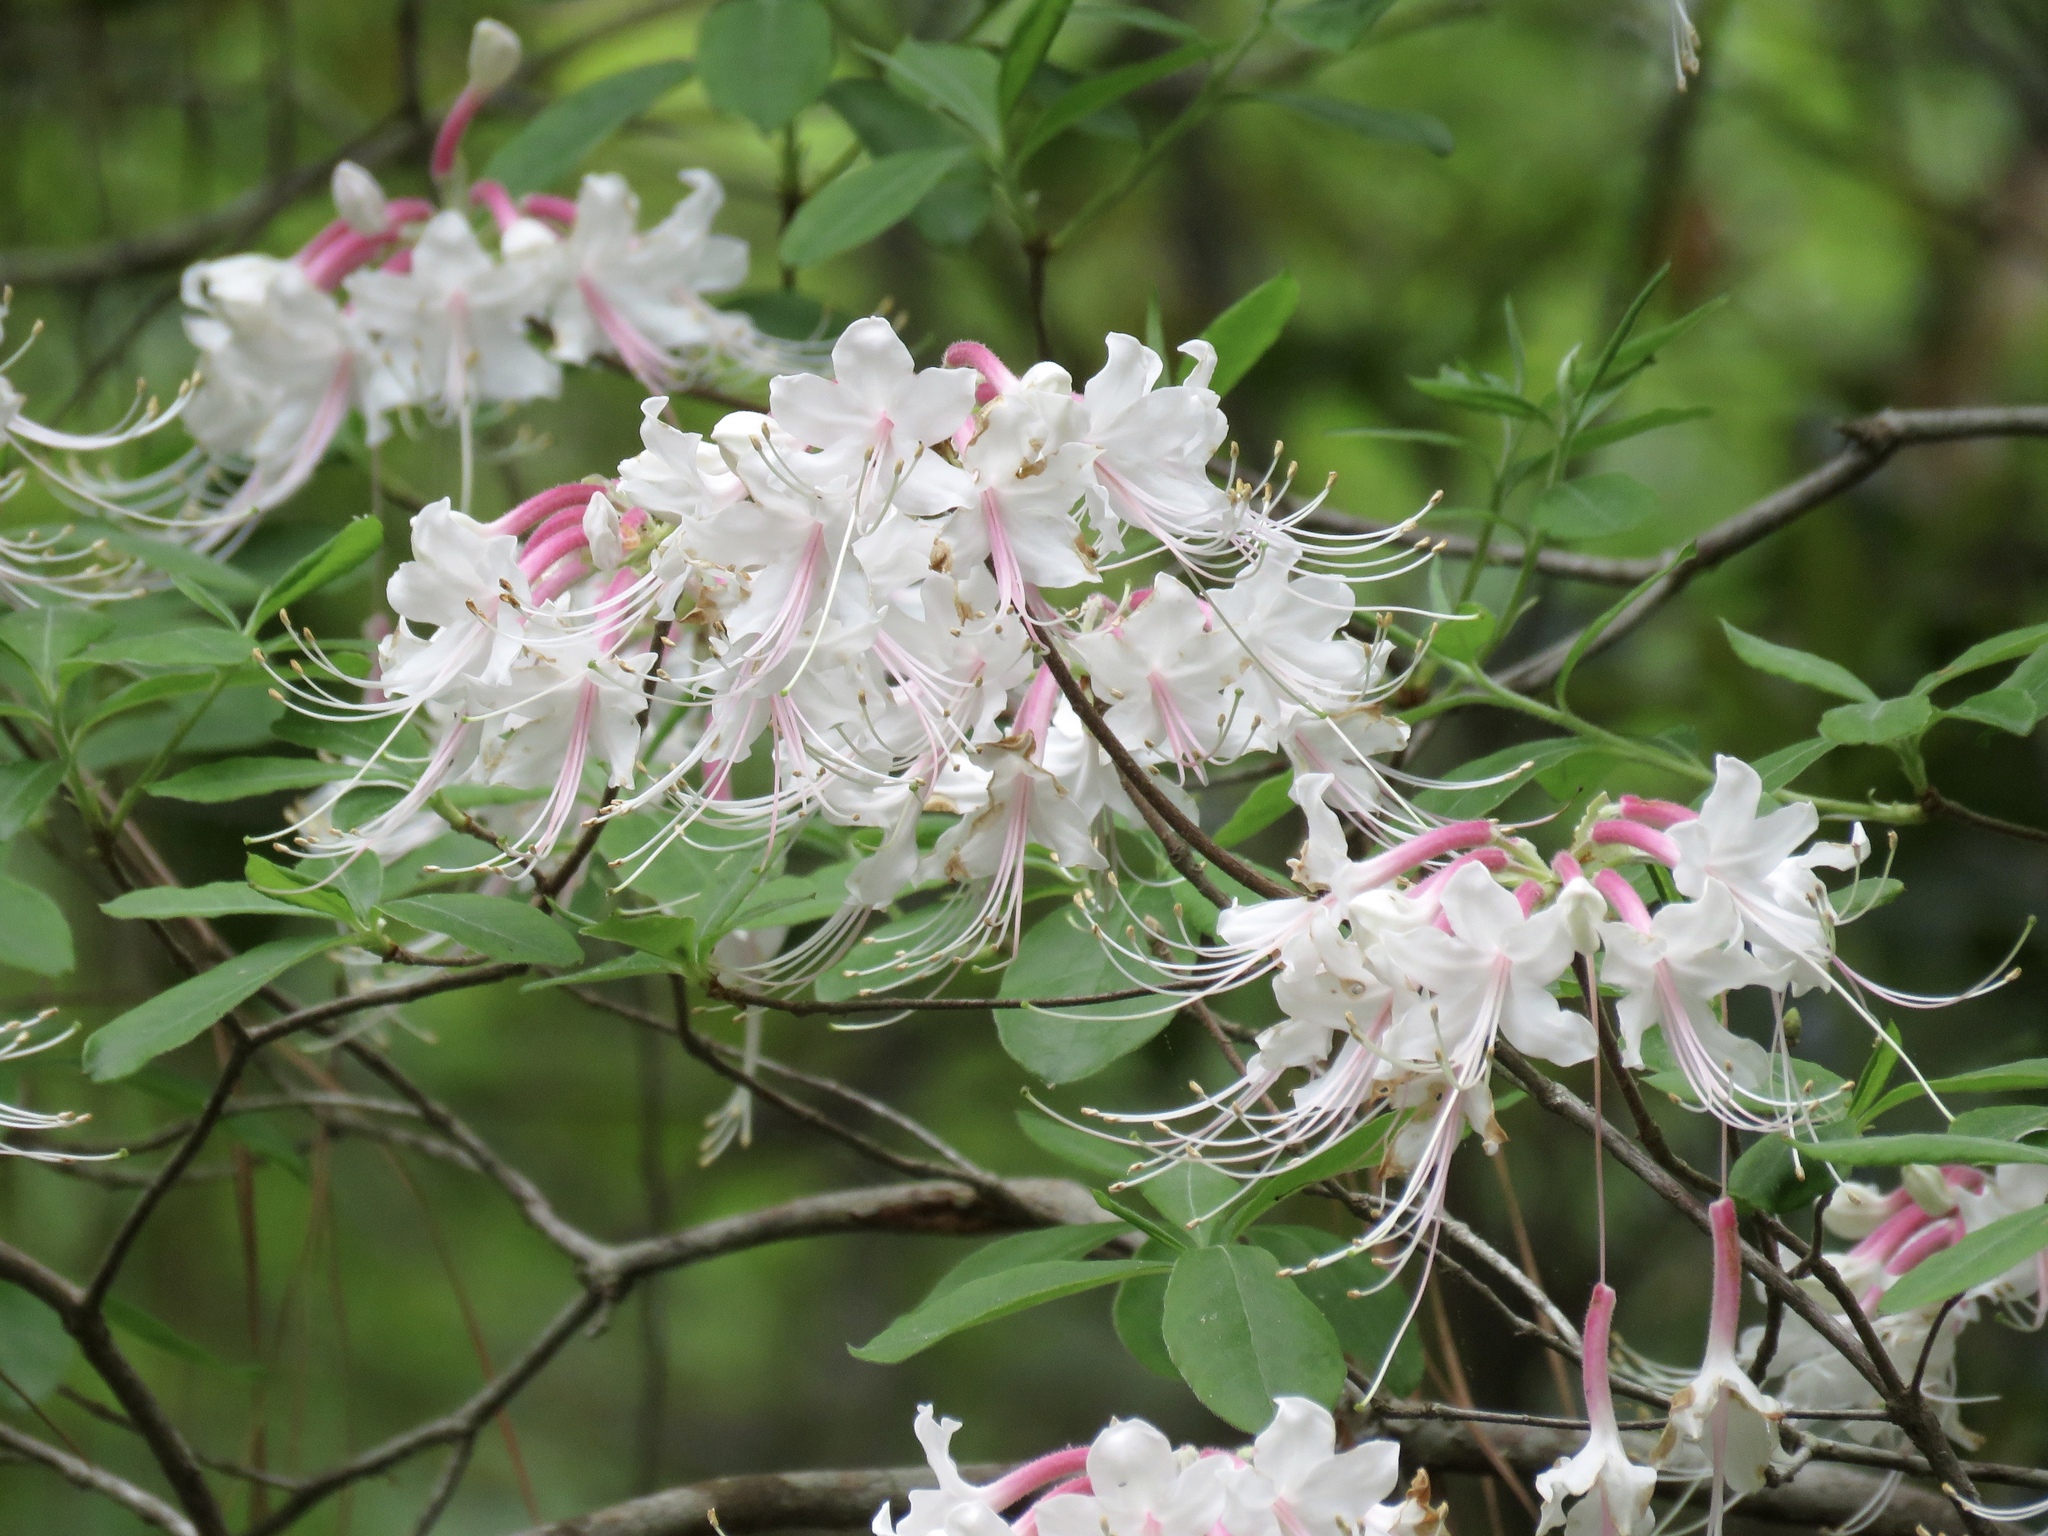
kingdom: Plantae
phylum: Tracheophyta
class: Magnoliopsida
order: Ericales
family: Ericaceae
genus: Rhododendron
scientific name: Rhododendron canescens
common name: Mountain azalea
